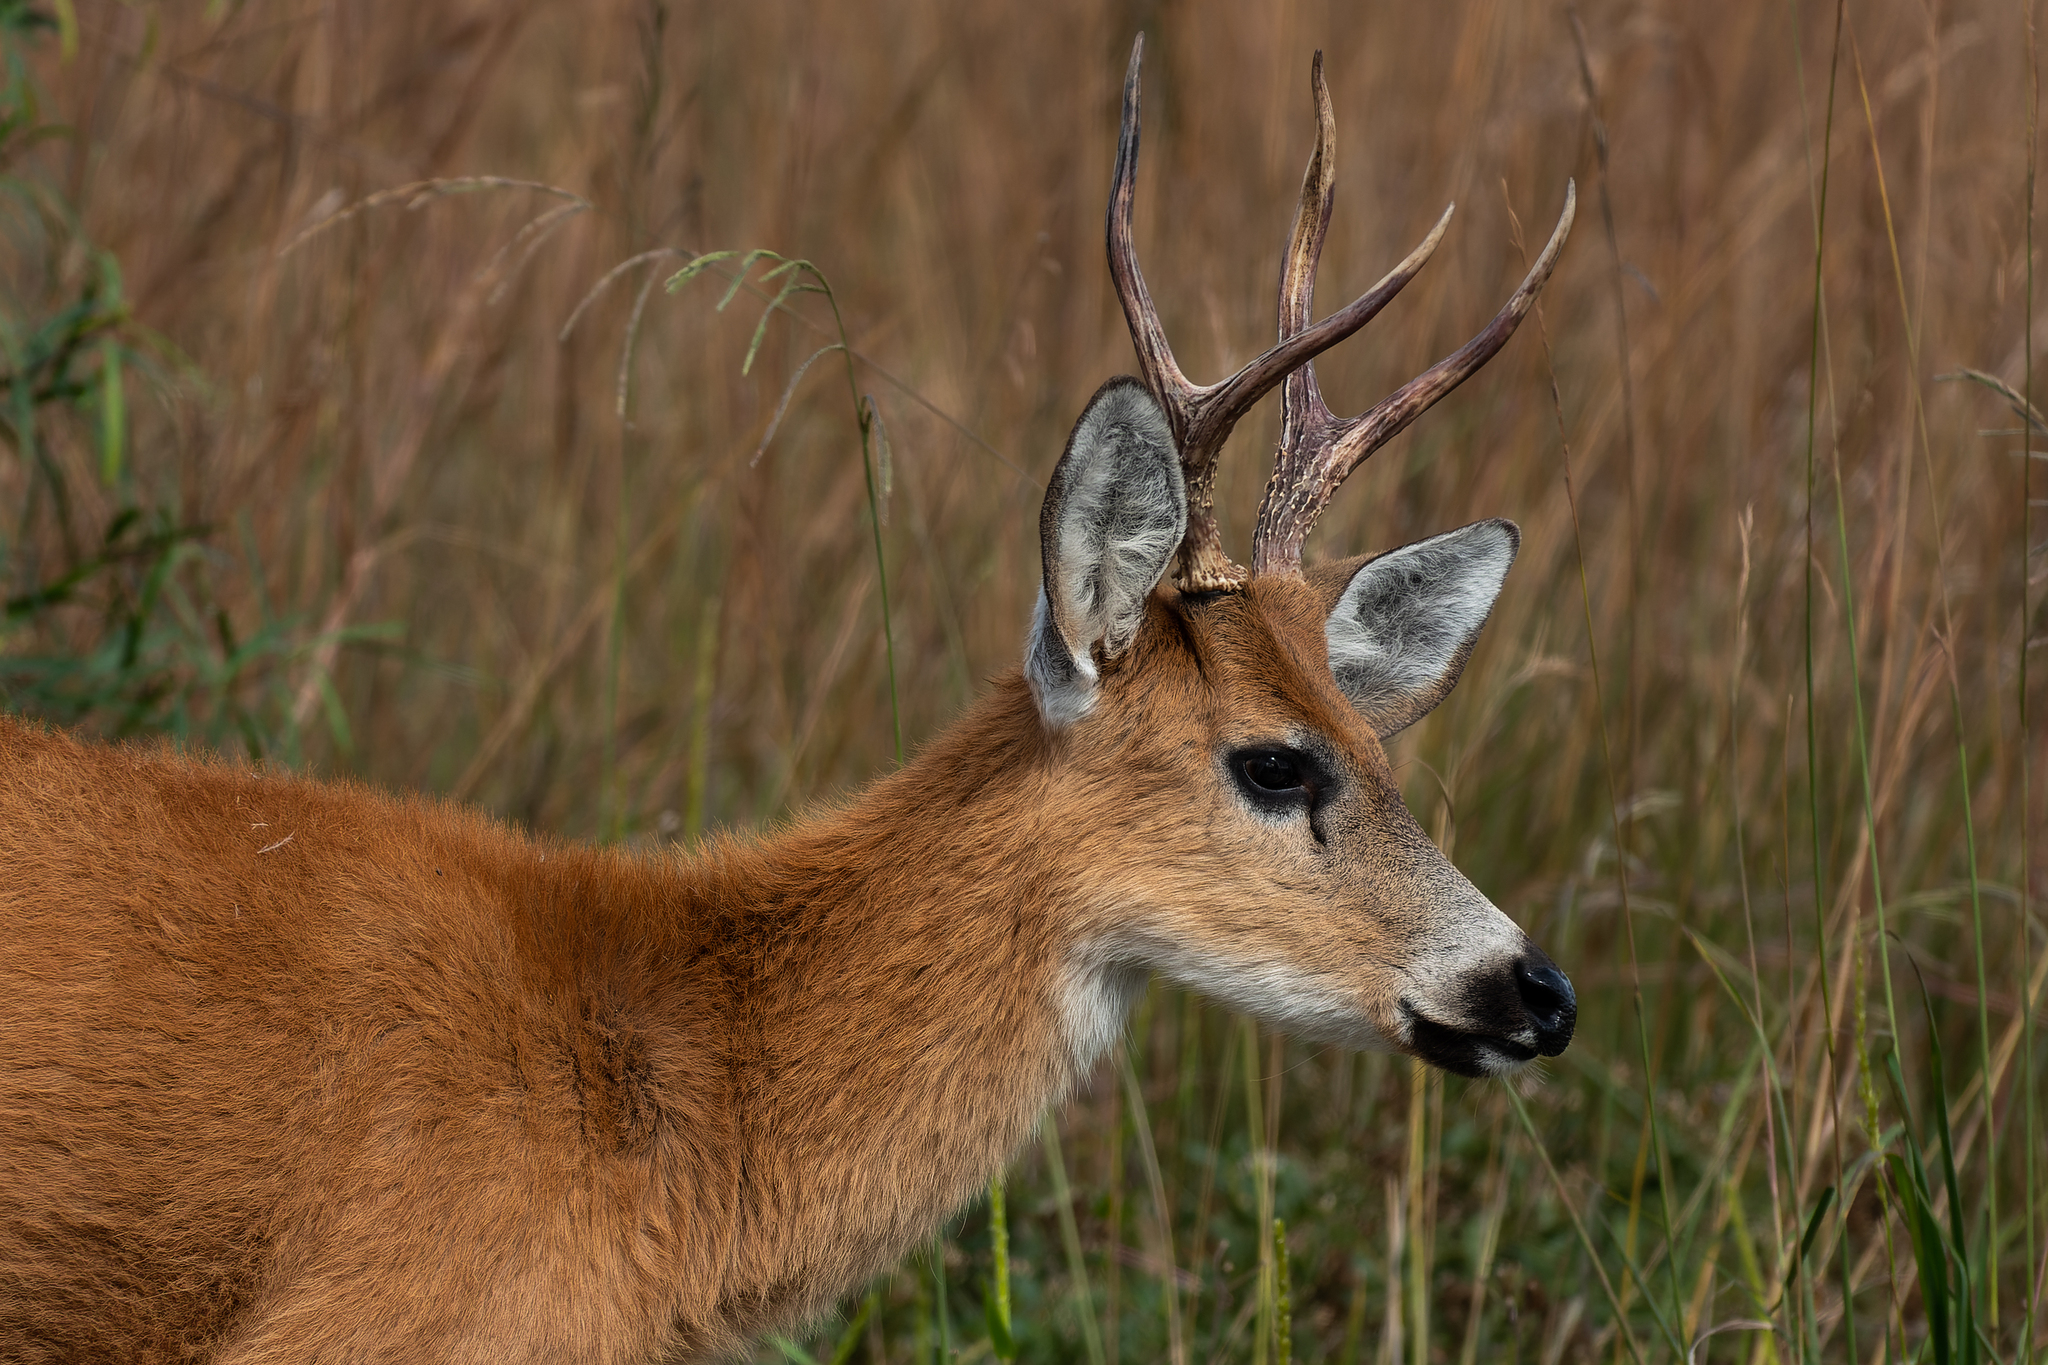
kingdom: Animalia
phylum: Chordata
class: Mammalia
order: Artiodactyla
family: Cervidae
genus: Blastocerus
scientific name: Blastocerus dichotomus
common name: Marsh deer
